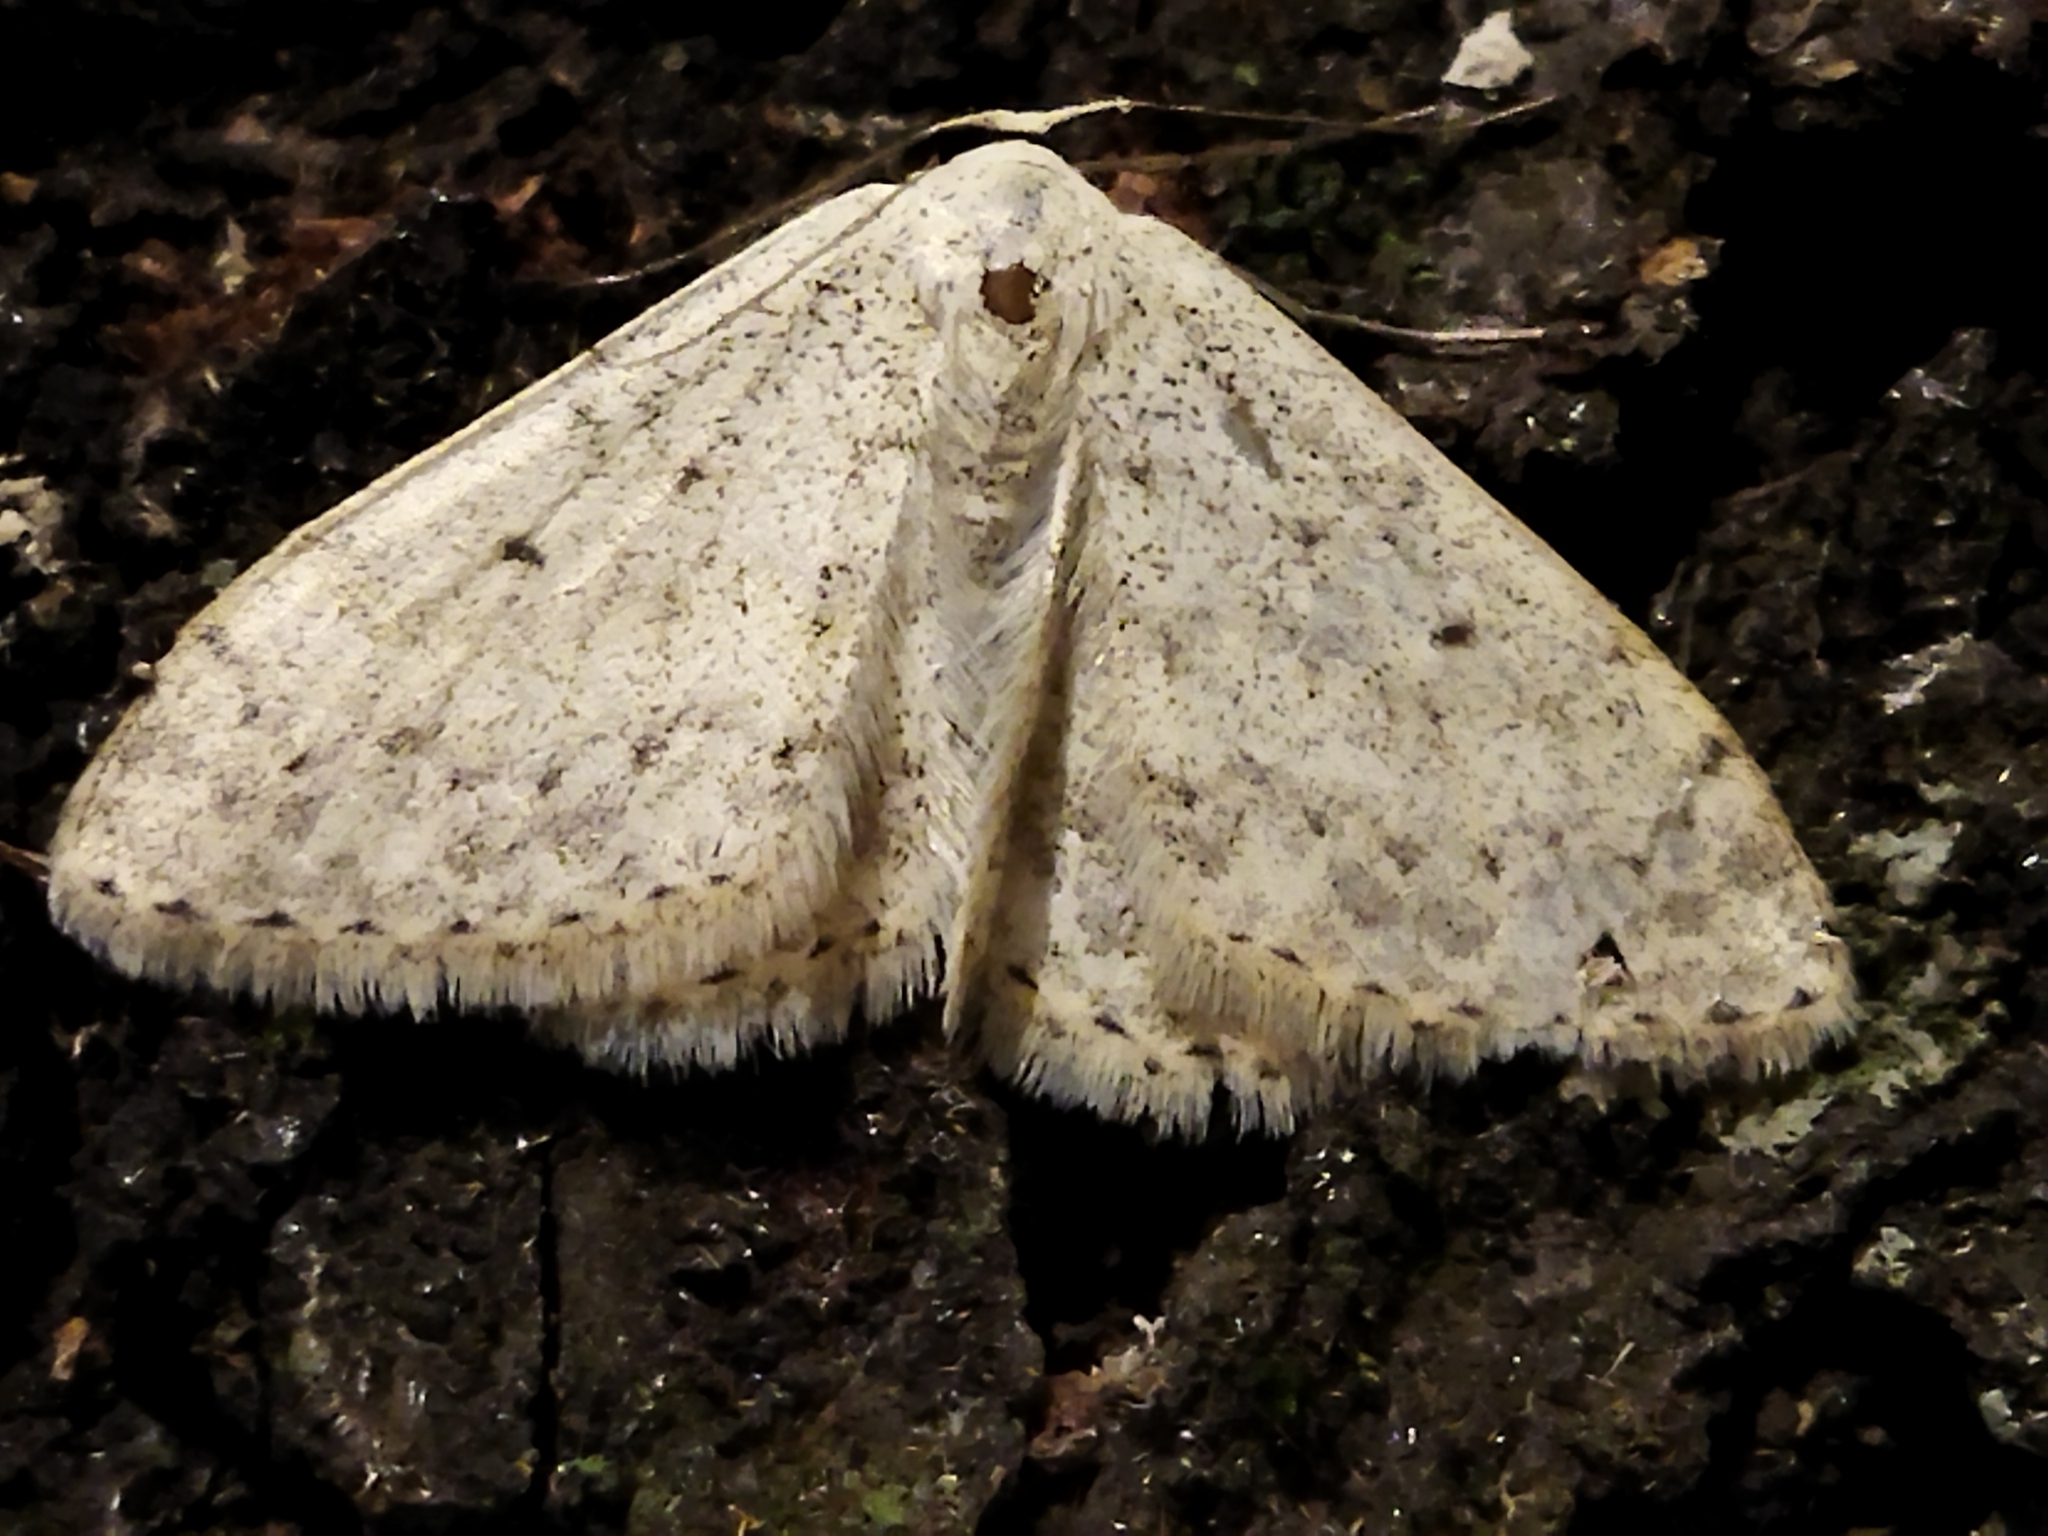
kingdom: Animalia
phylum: Arthropoda
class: Insecta
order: Lepidoptera
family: Geometridae
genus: Scopula
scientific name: Scopula marginepunctata
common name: Mullein wave
